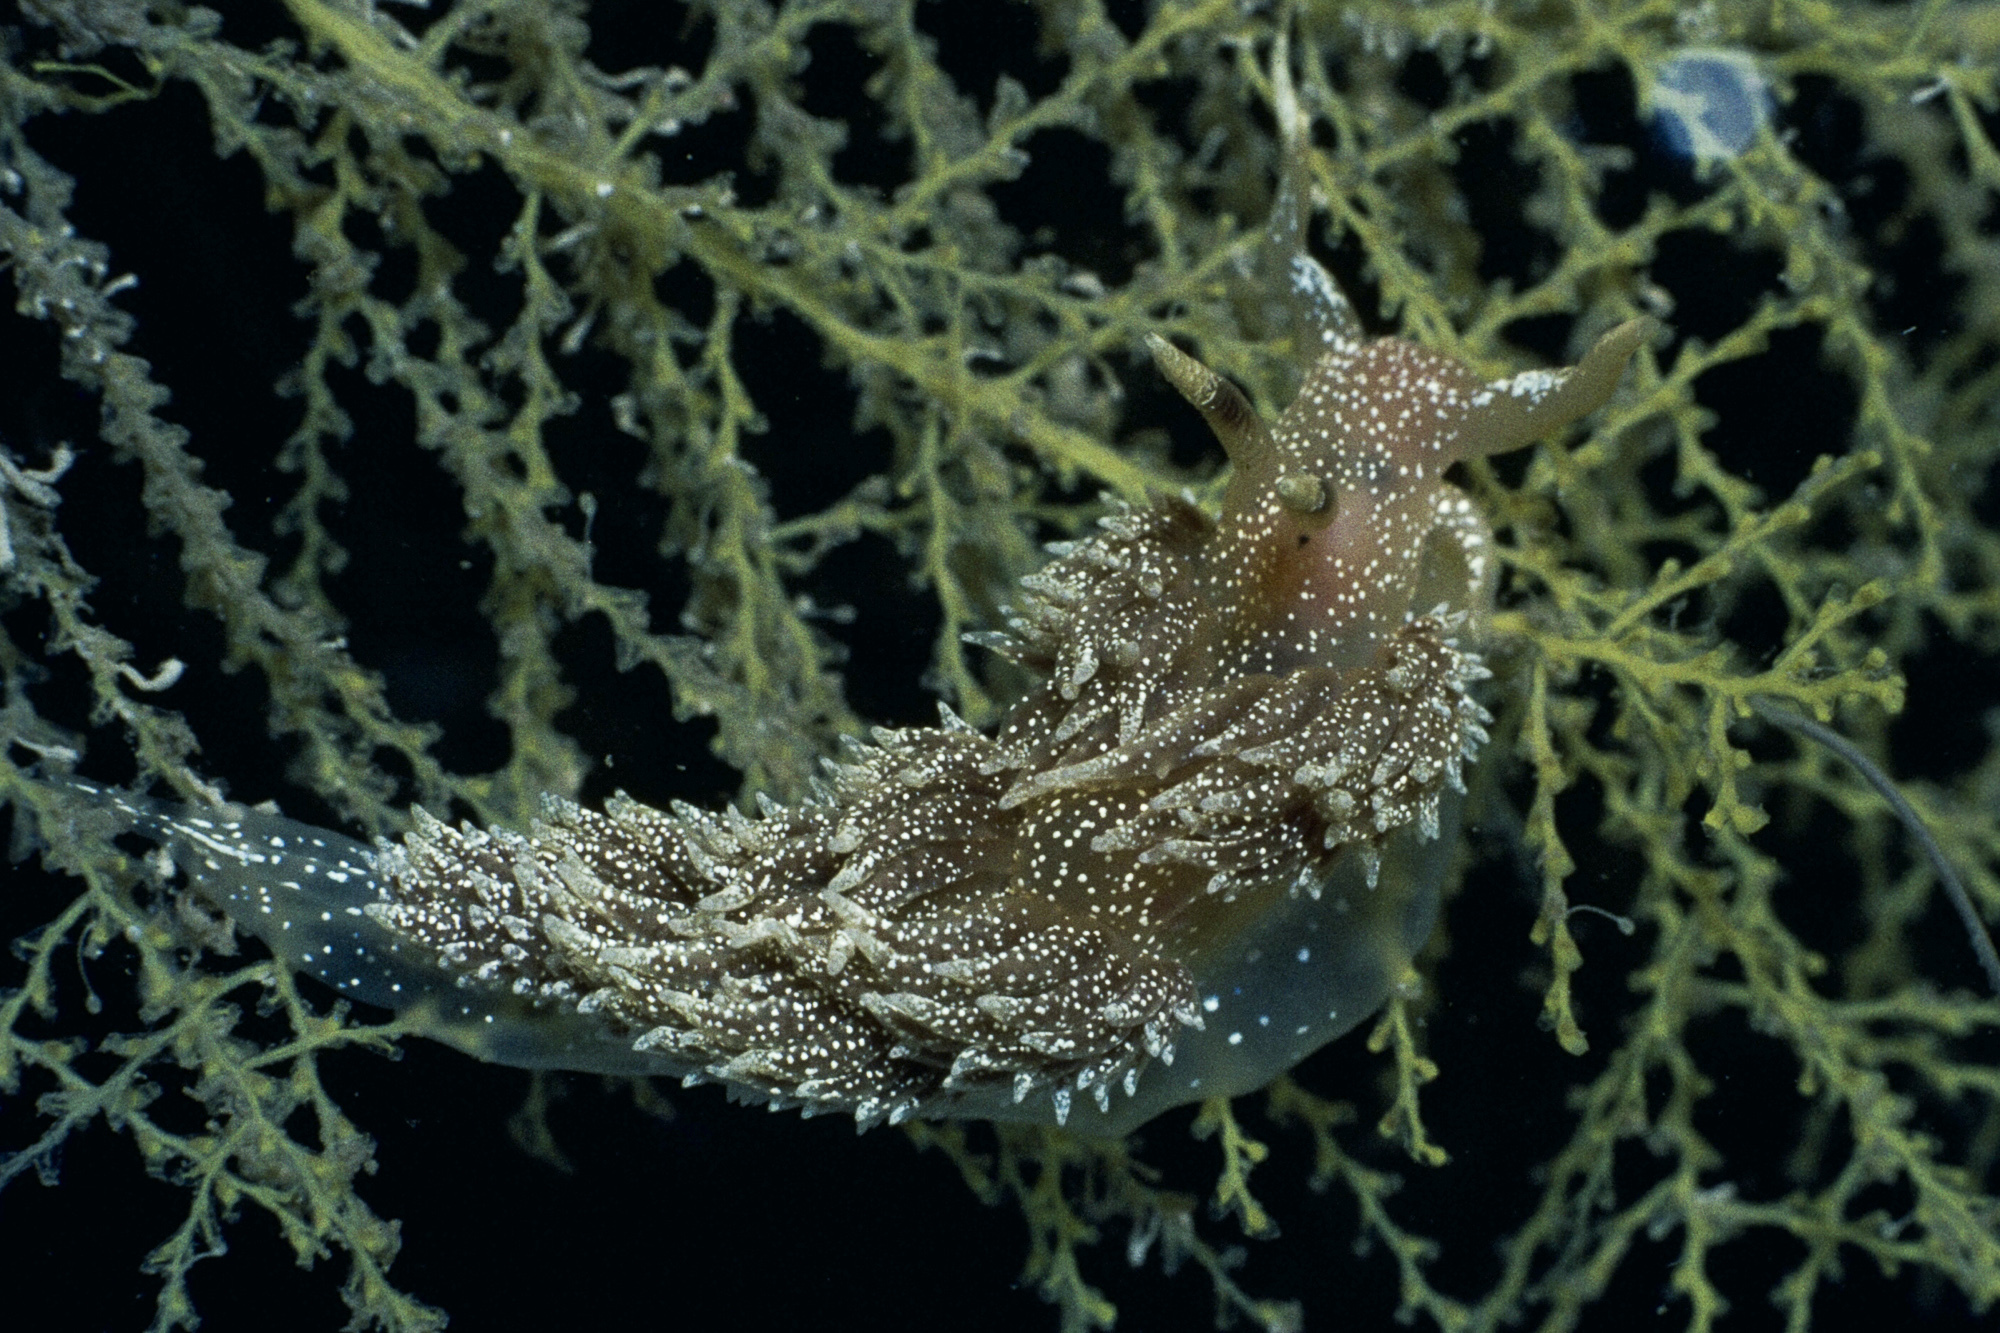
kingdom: Animalia
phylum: Mollusca
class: Gastropoda
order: Nudibranchia
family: Facelinidae
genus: Facelina
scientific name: Facelina annulicornis
